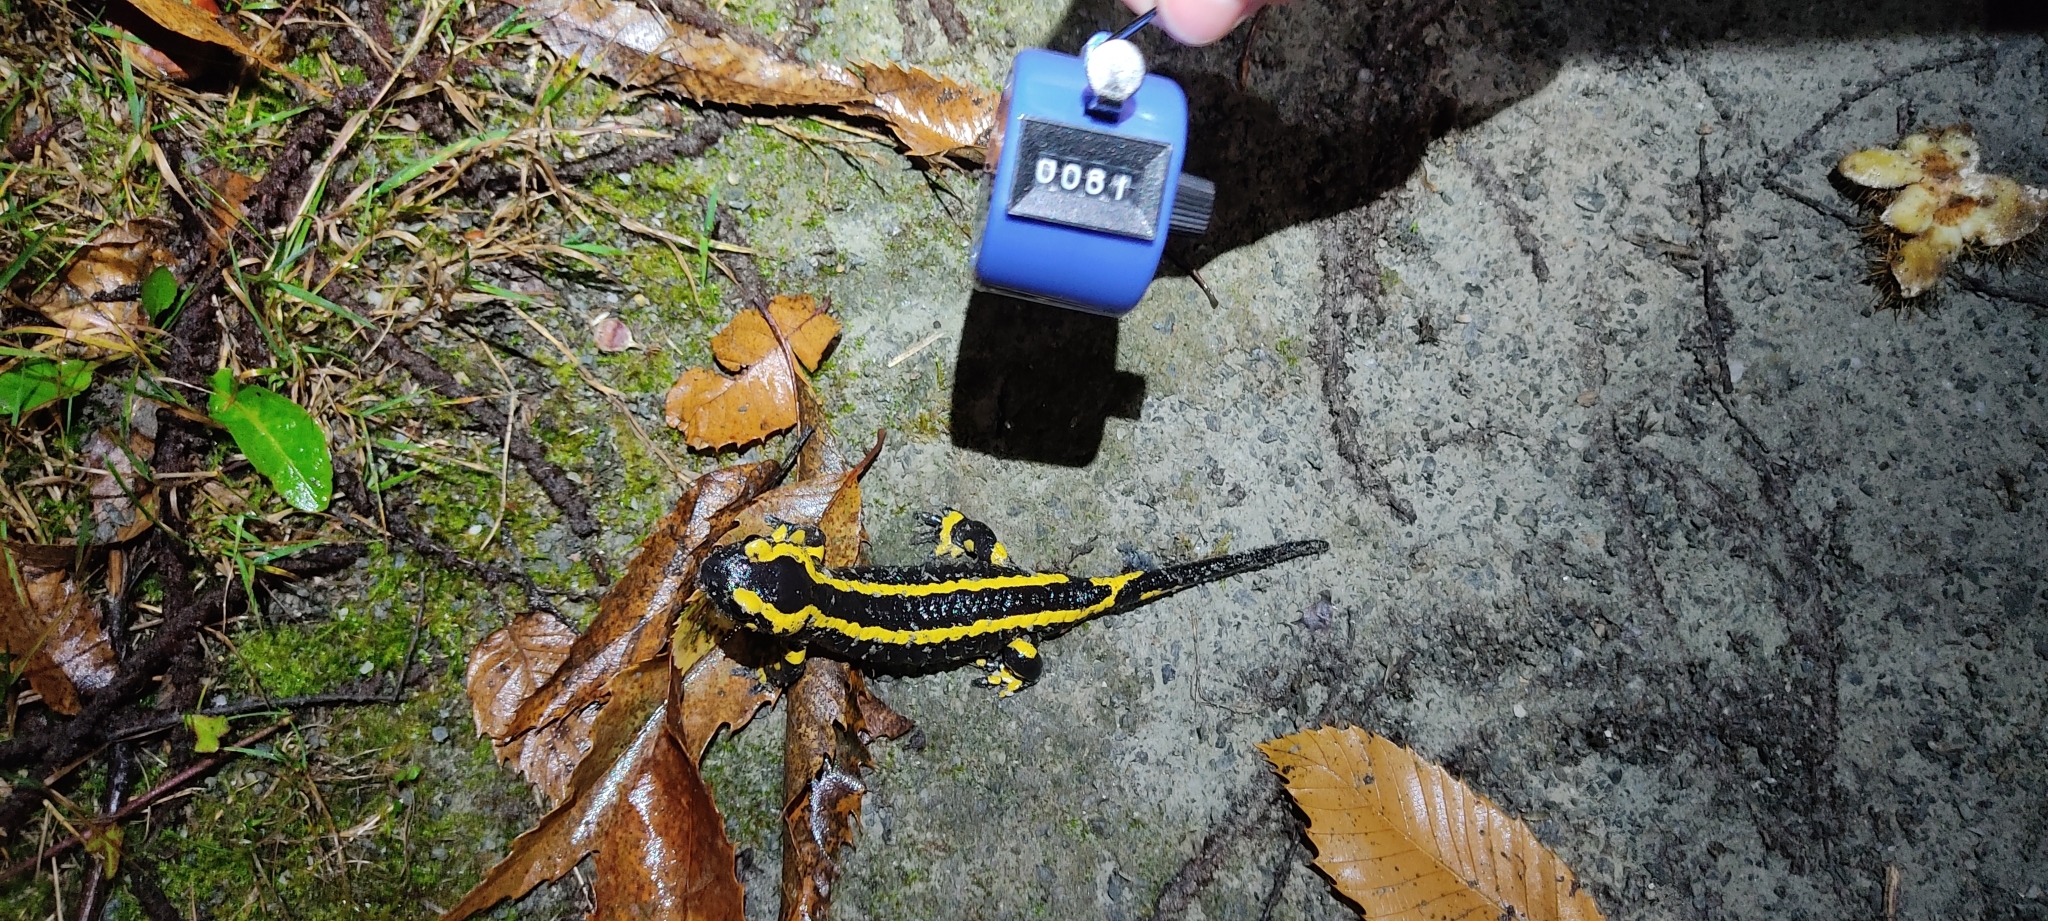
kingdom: Animalia
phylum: Chordata
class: Amphibia
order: Caudata
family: Salamandridae
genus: Salamandra
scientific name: Salamandra salamandra
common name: Fire salamander
